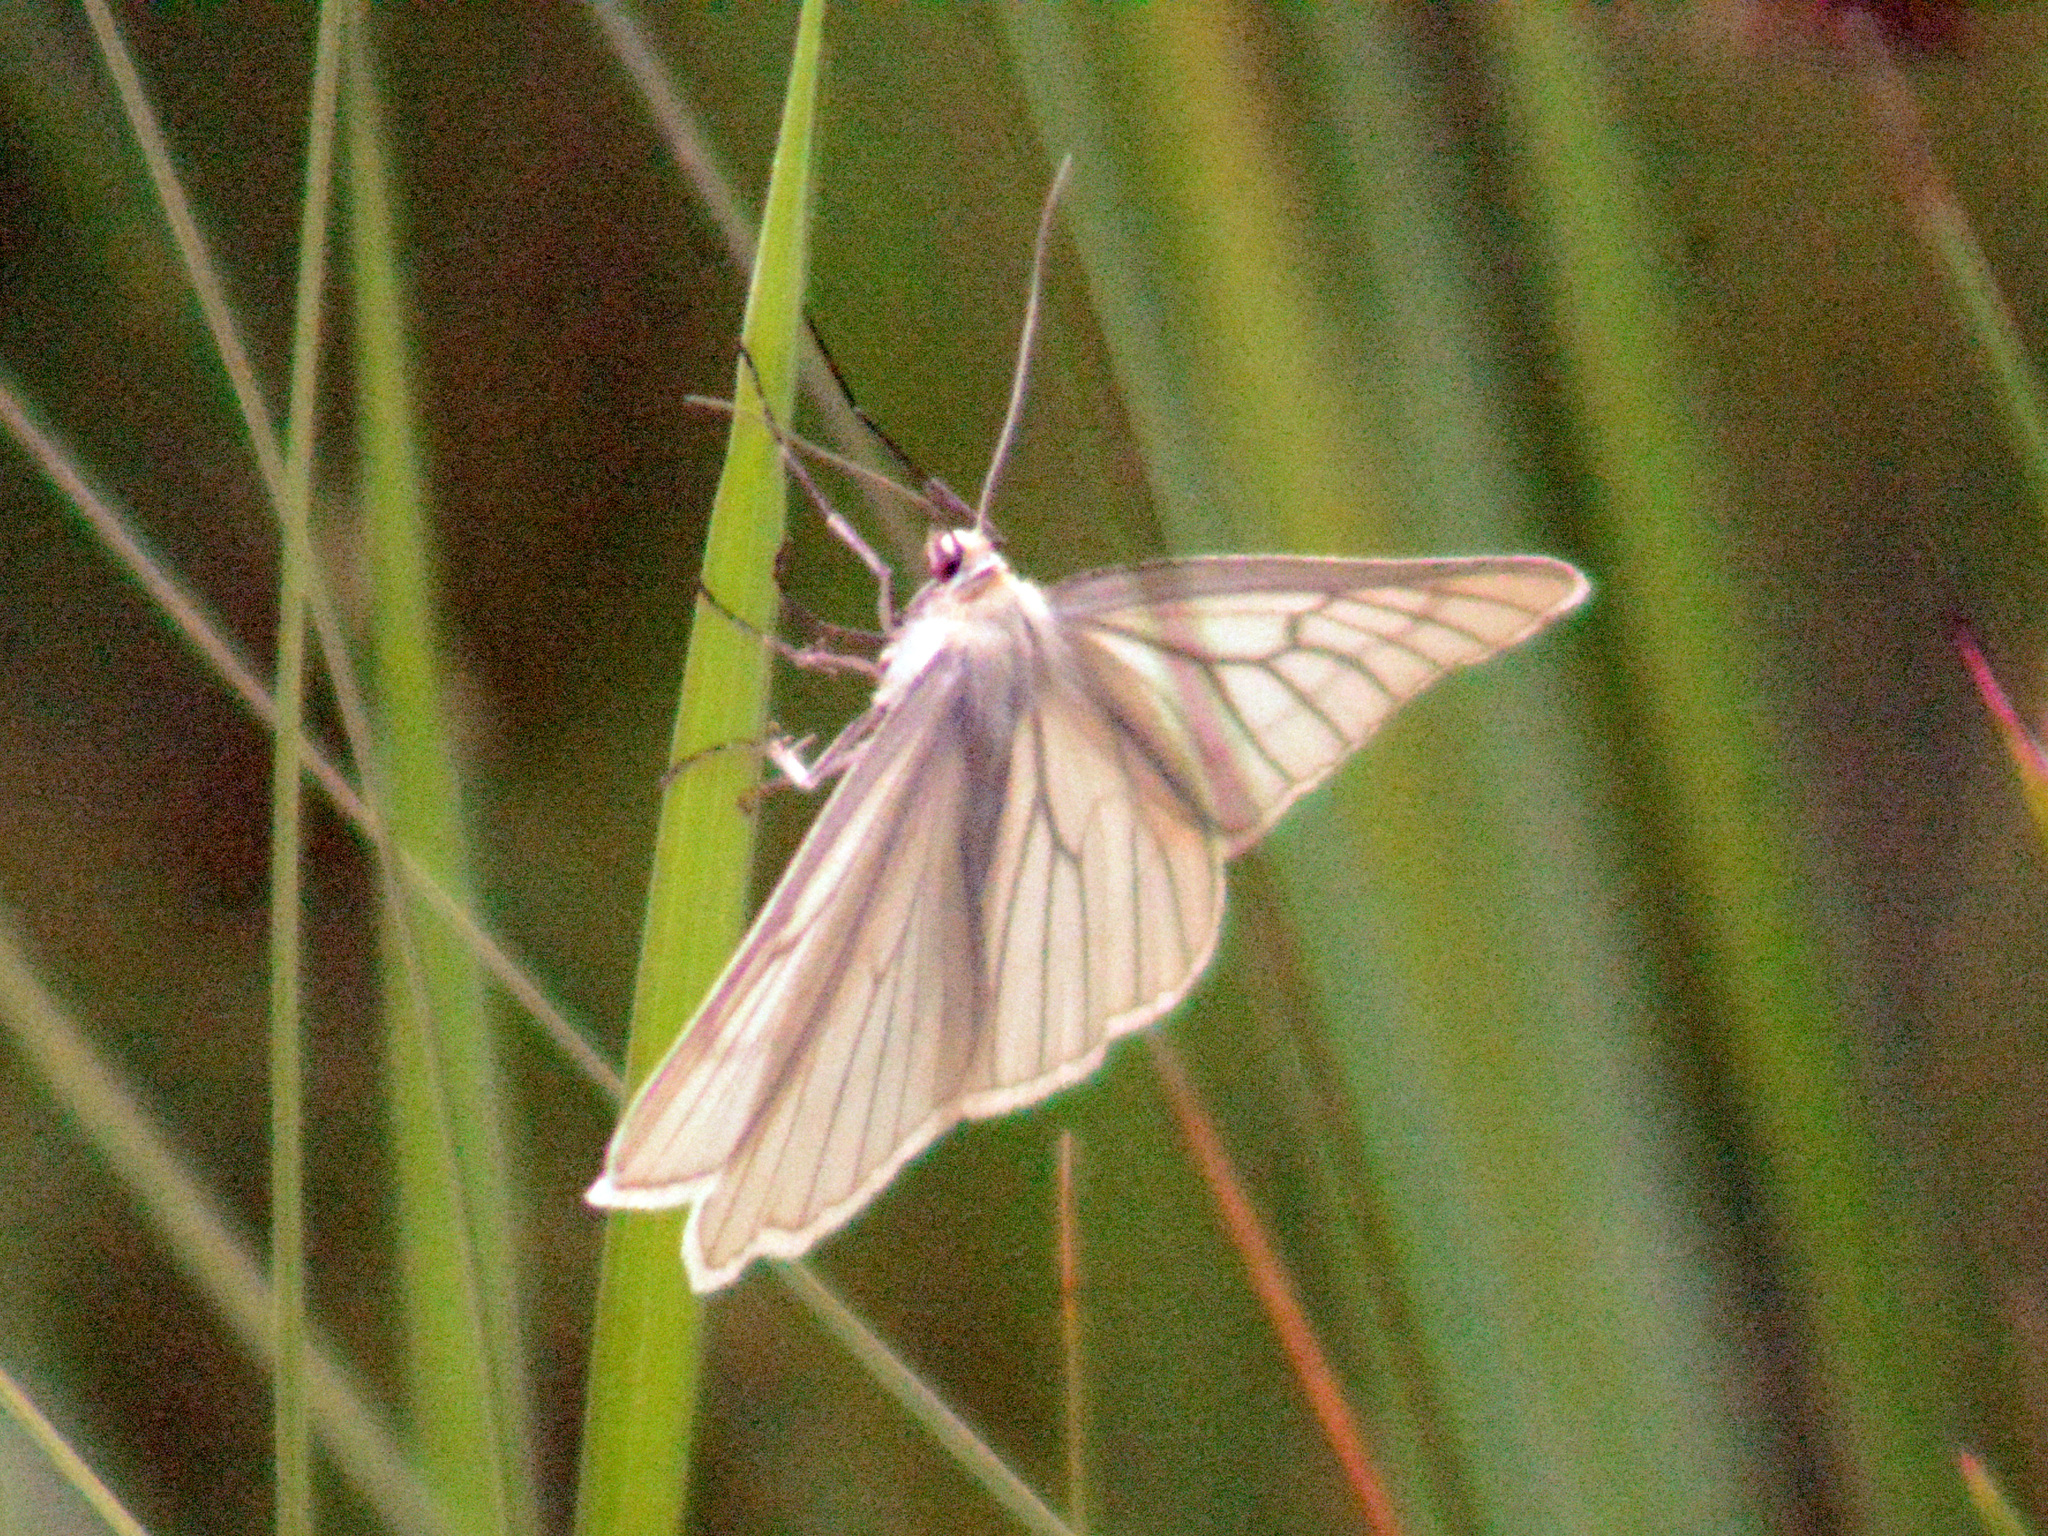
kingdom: Animalia
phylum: Arthropoda
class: Insecta
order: Lepidoptera
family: Geometridae
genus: Siona
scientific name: Siona lineata
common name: Black-veined moth
